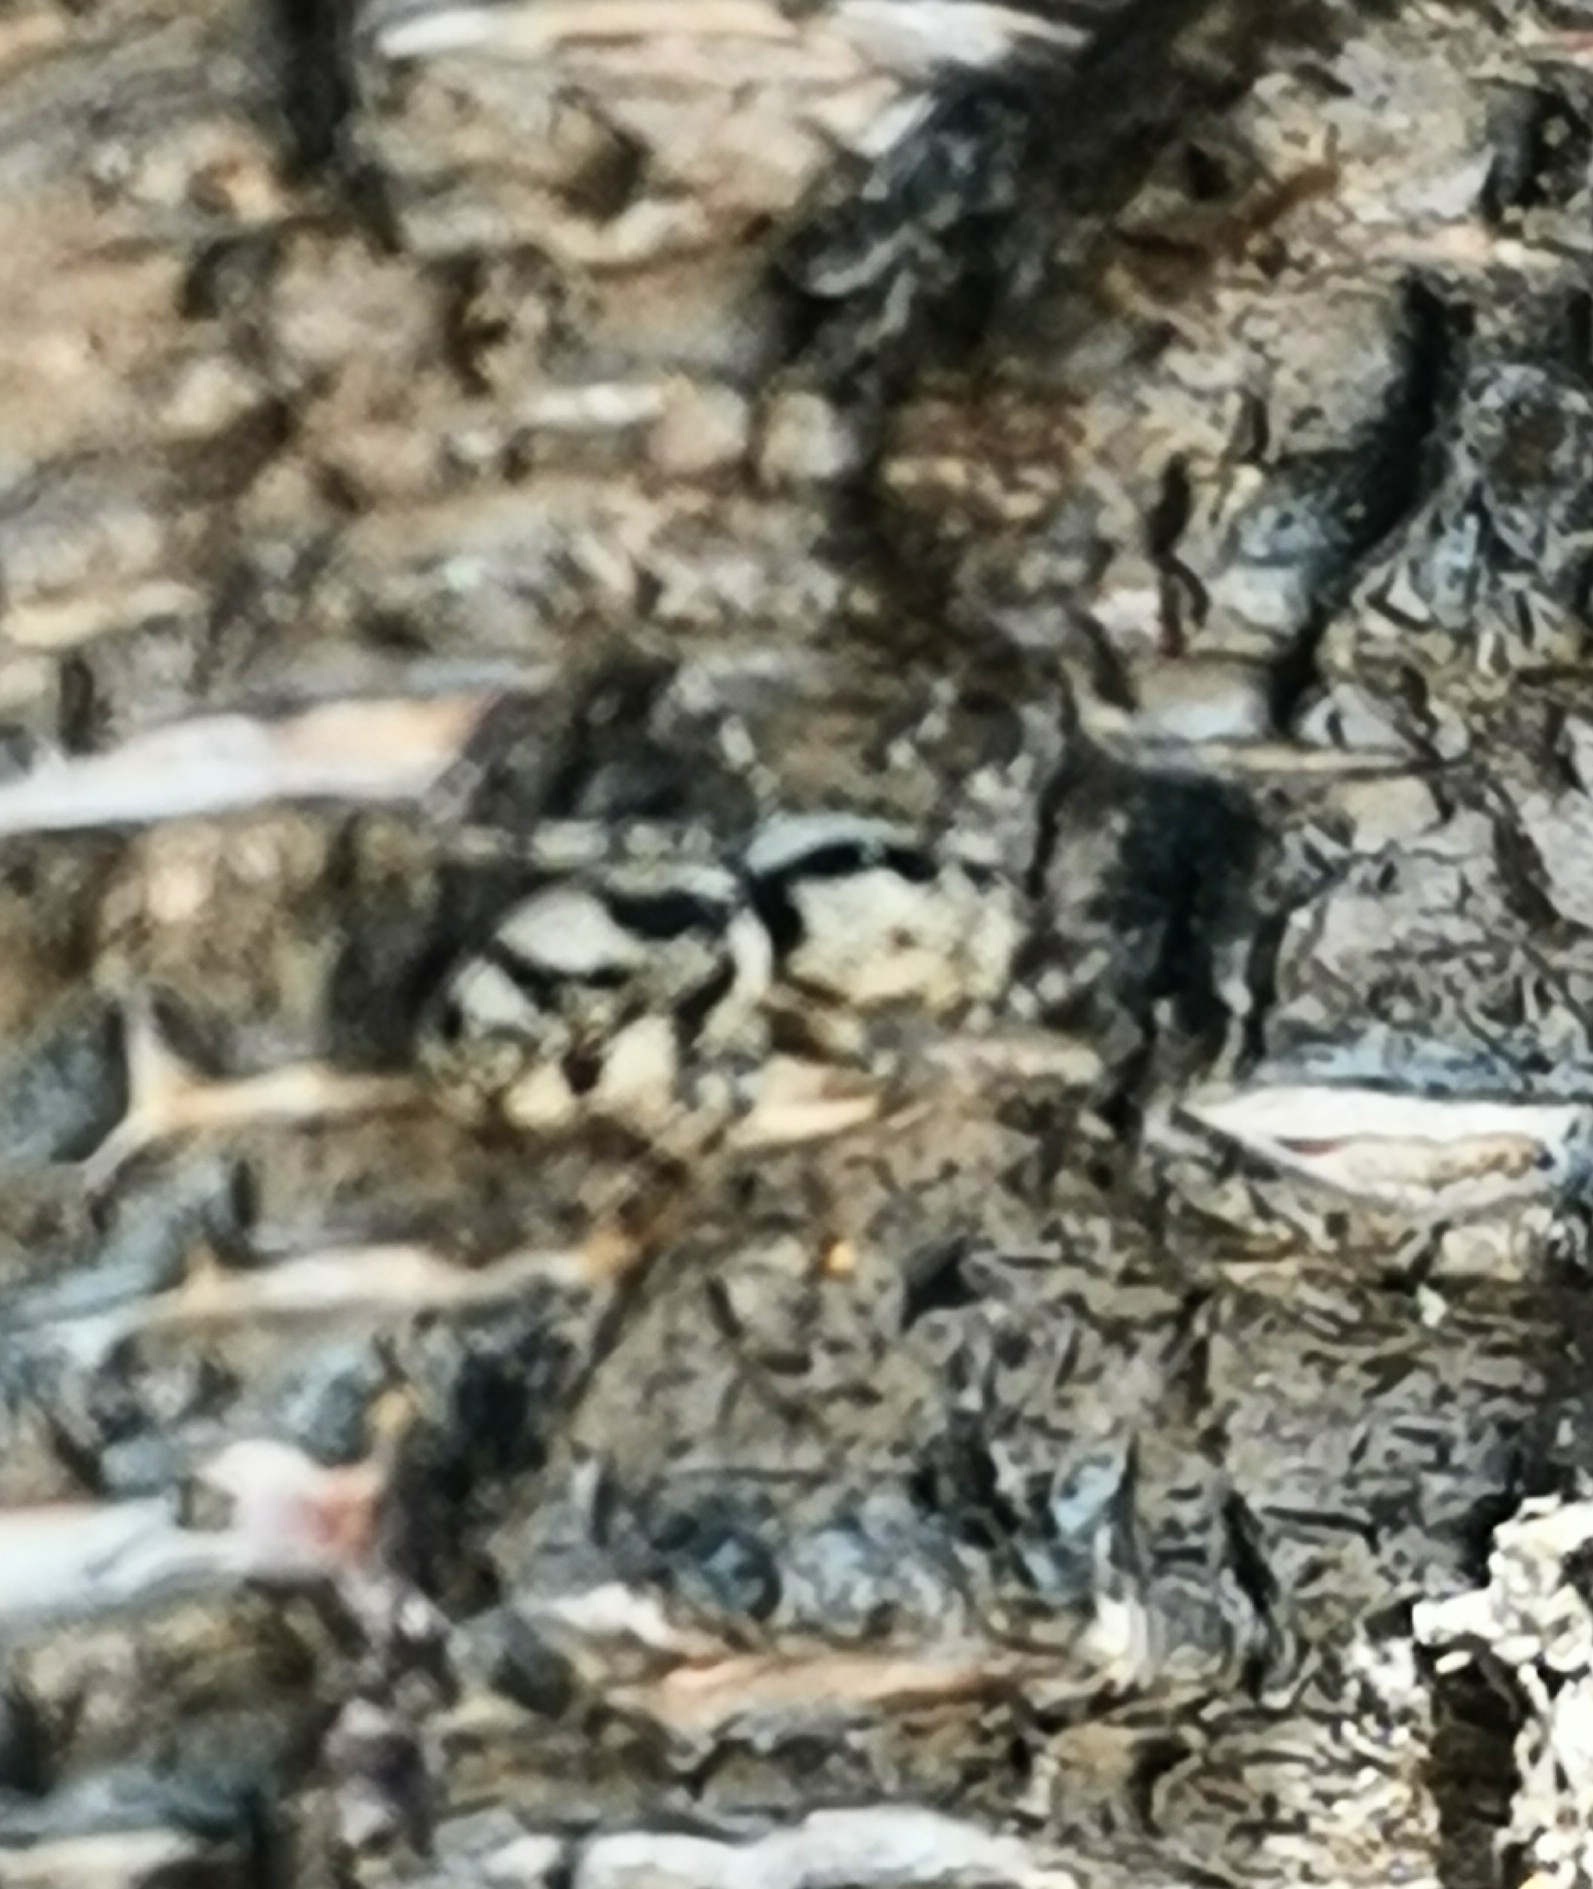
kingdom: Animalia
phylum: Arthropoda
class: Arachnida
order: Araneae
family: Salticidae
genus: Salticus
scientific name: Salticus cingulatus
